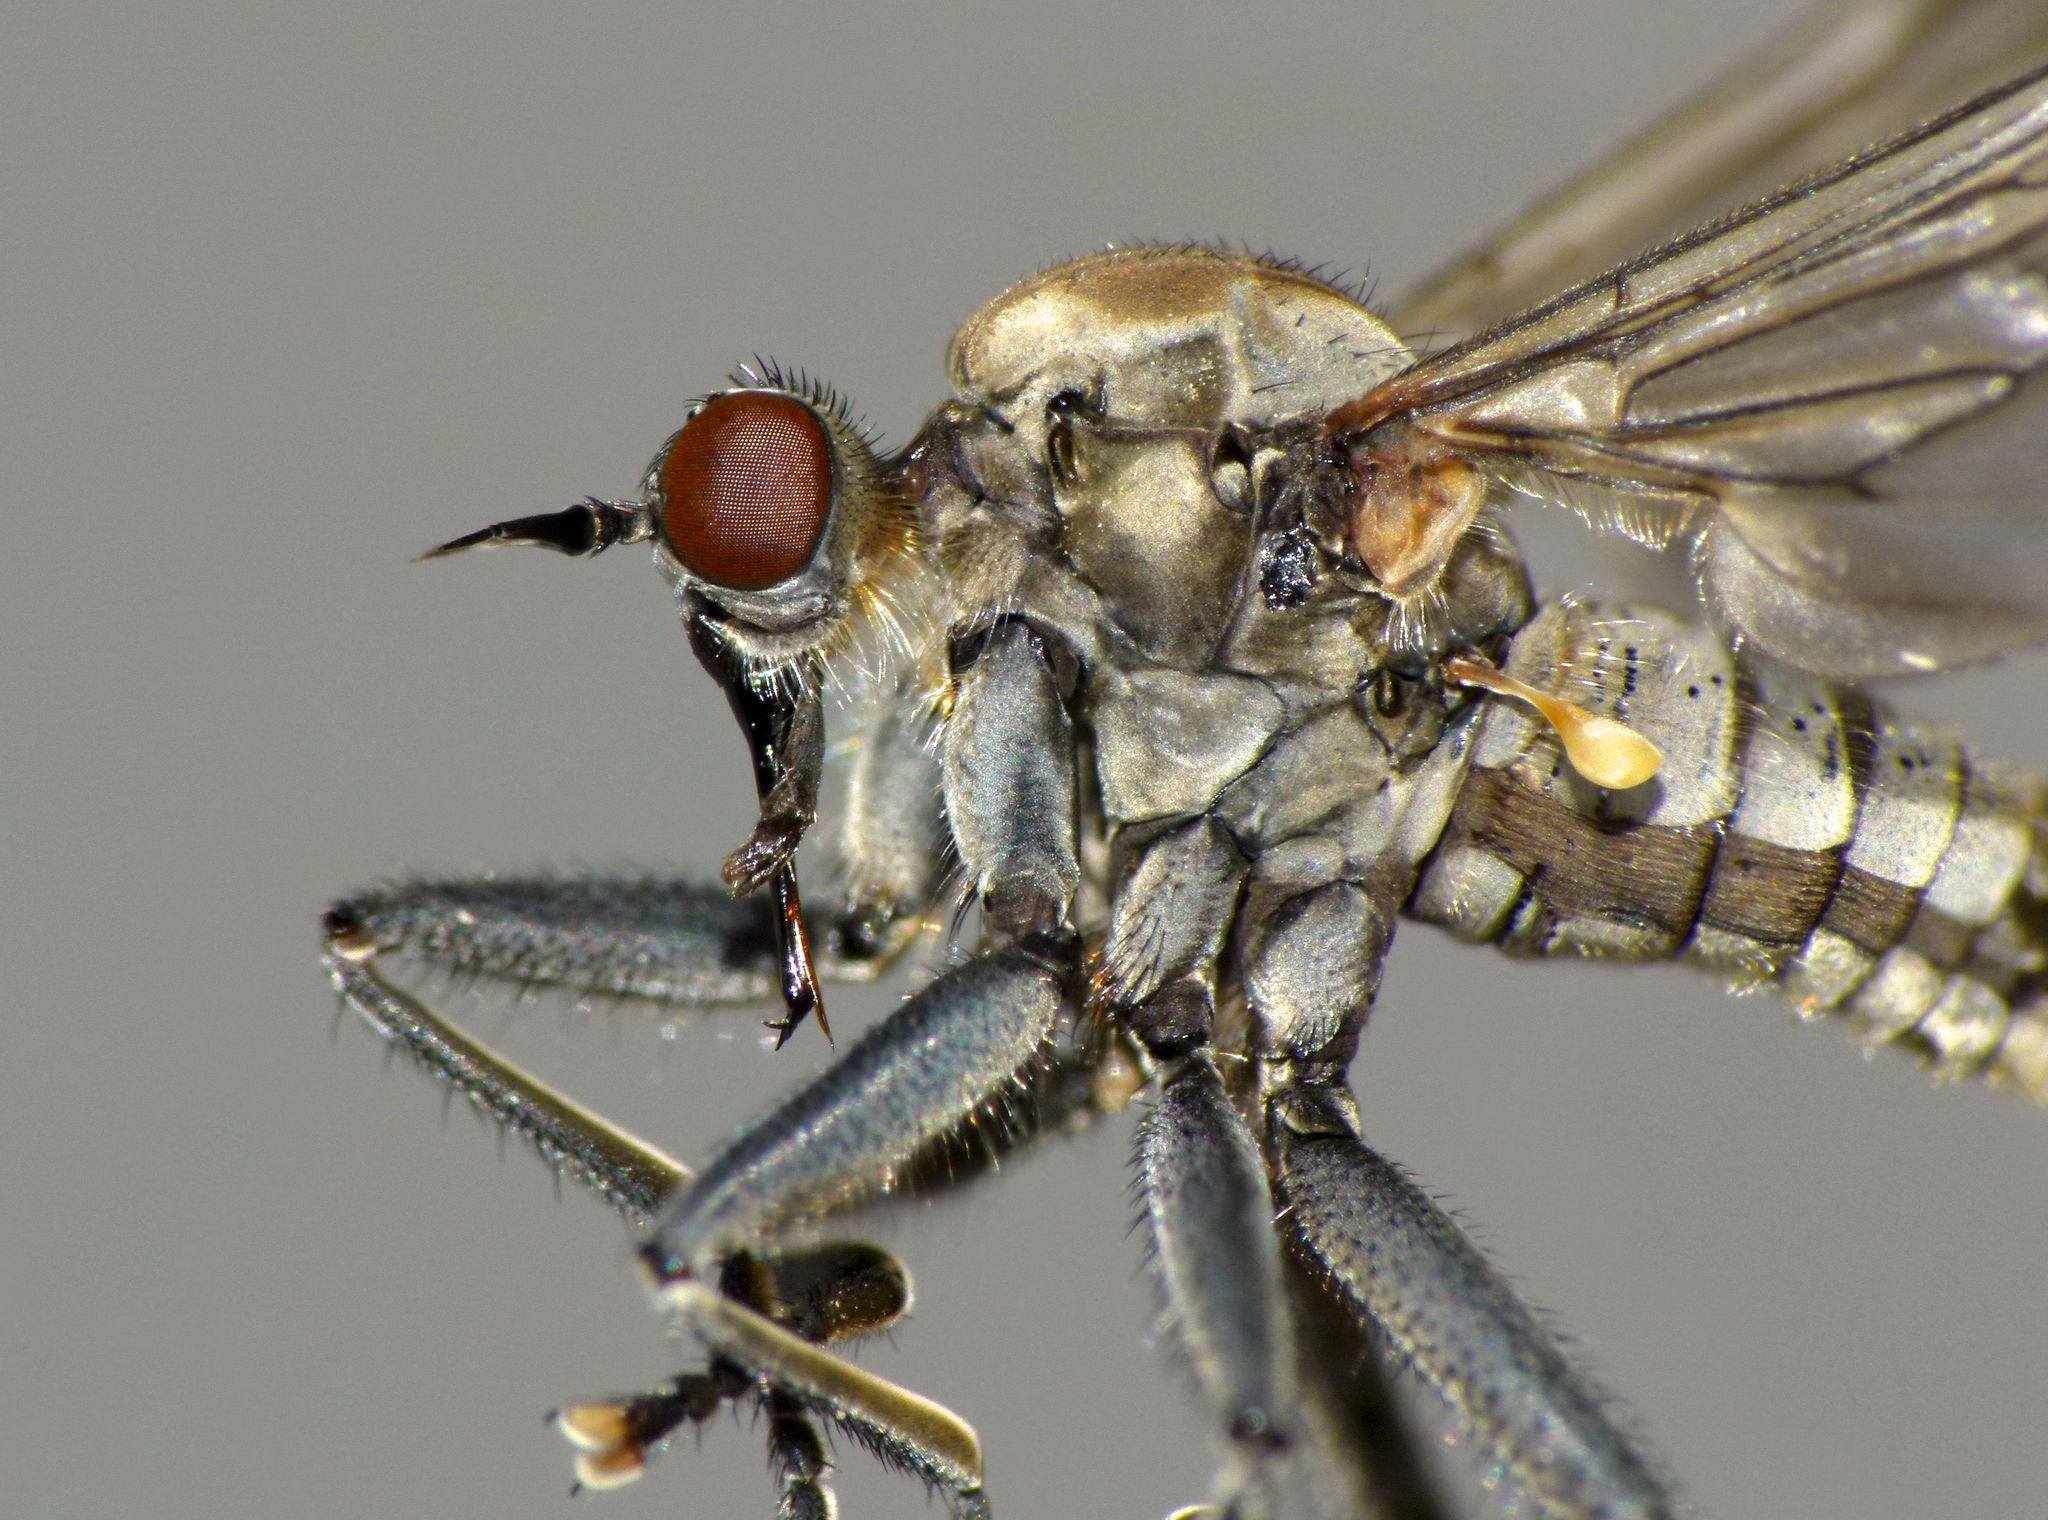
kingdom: Animalia
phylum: Arthropoda
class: Insecta
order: Diptera
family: Empididae
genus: Thinempis
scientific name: Thinempis otakouensis
